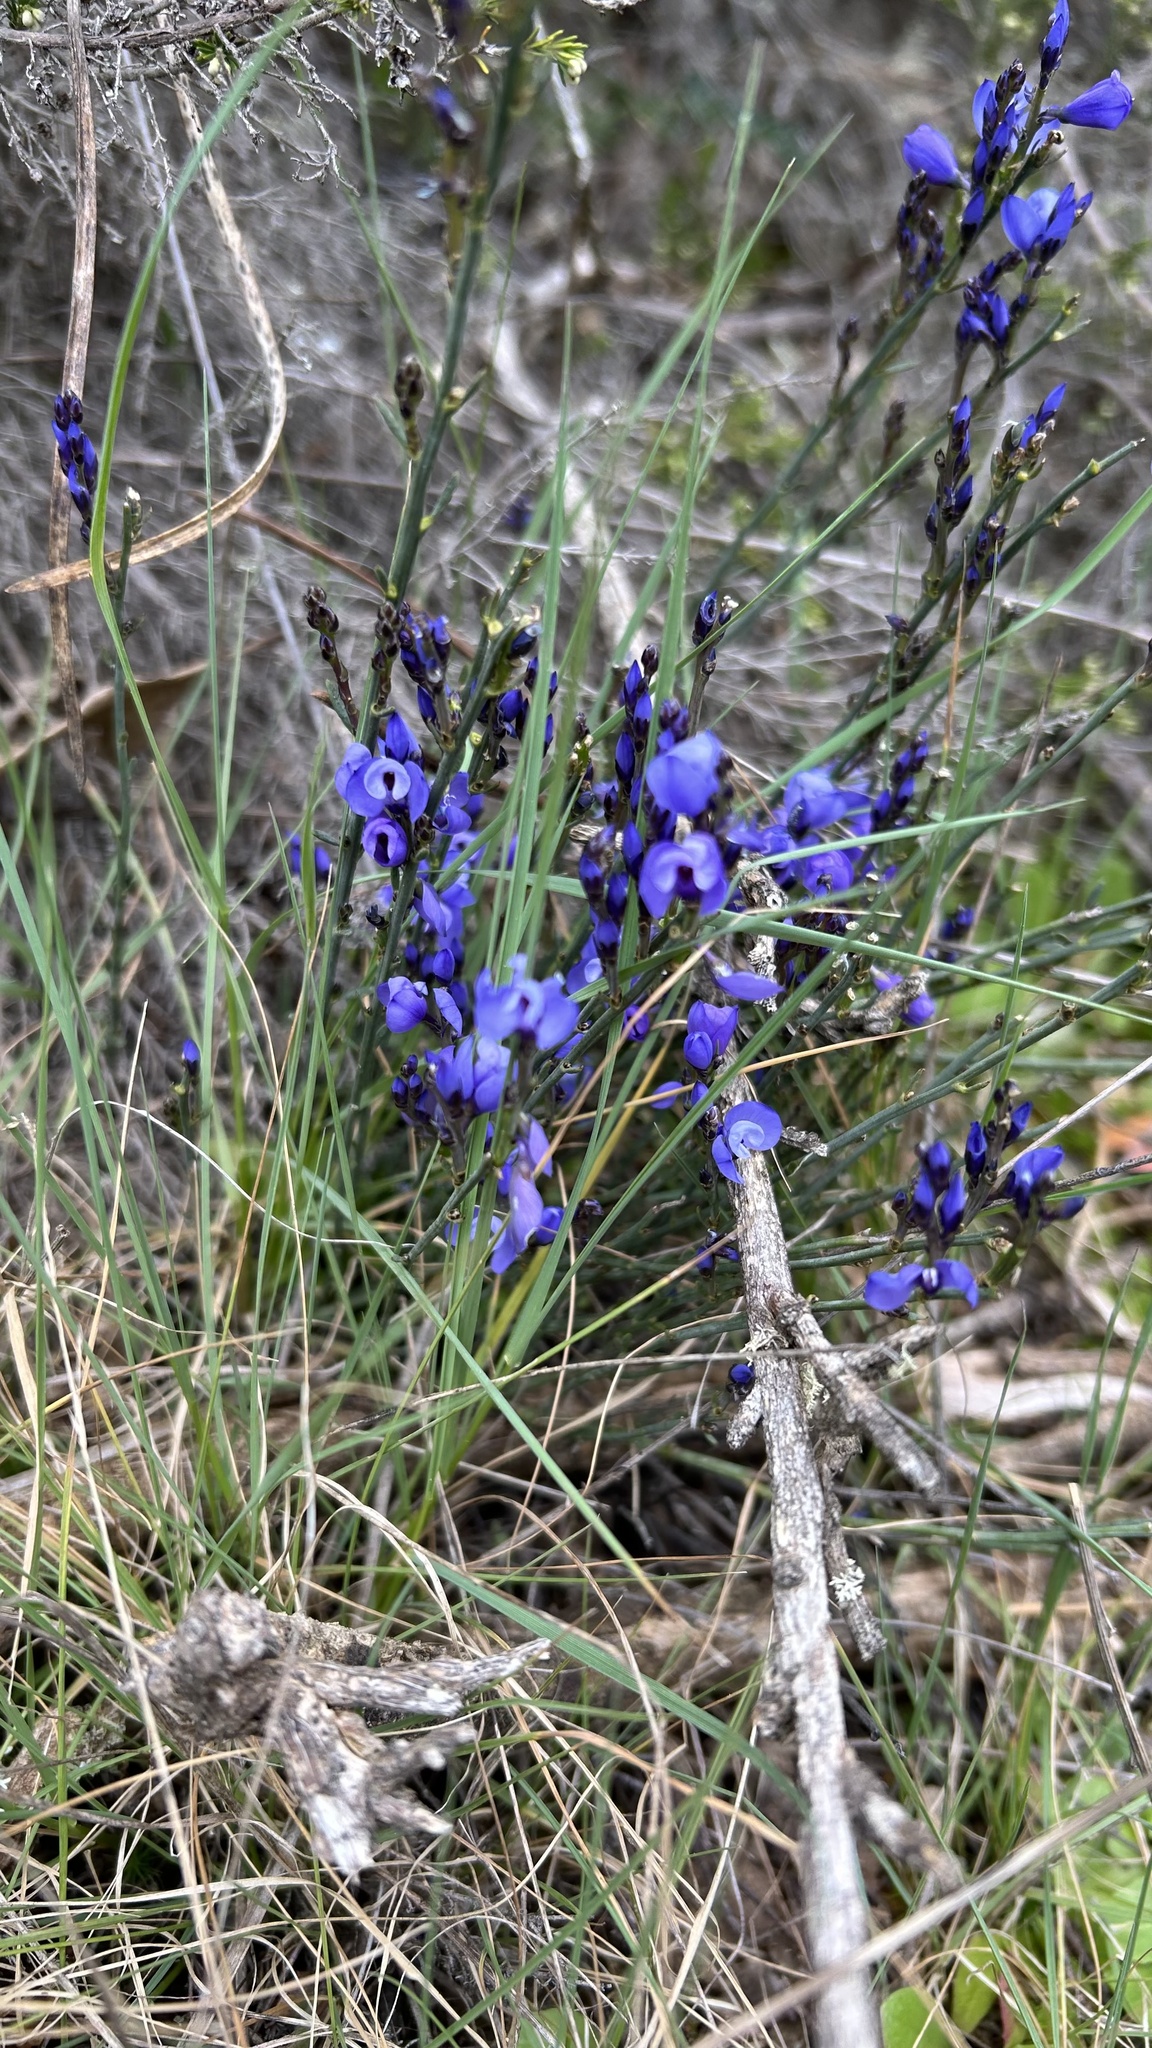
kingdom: Plantae
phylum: Tracheophyta
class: Magnoliopsida
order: Fabales
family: Polygalaceae
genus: Polygala
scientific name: Polygala microphylla
